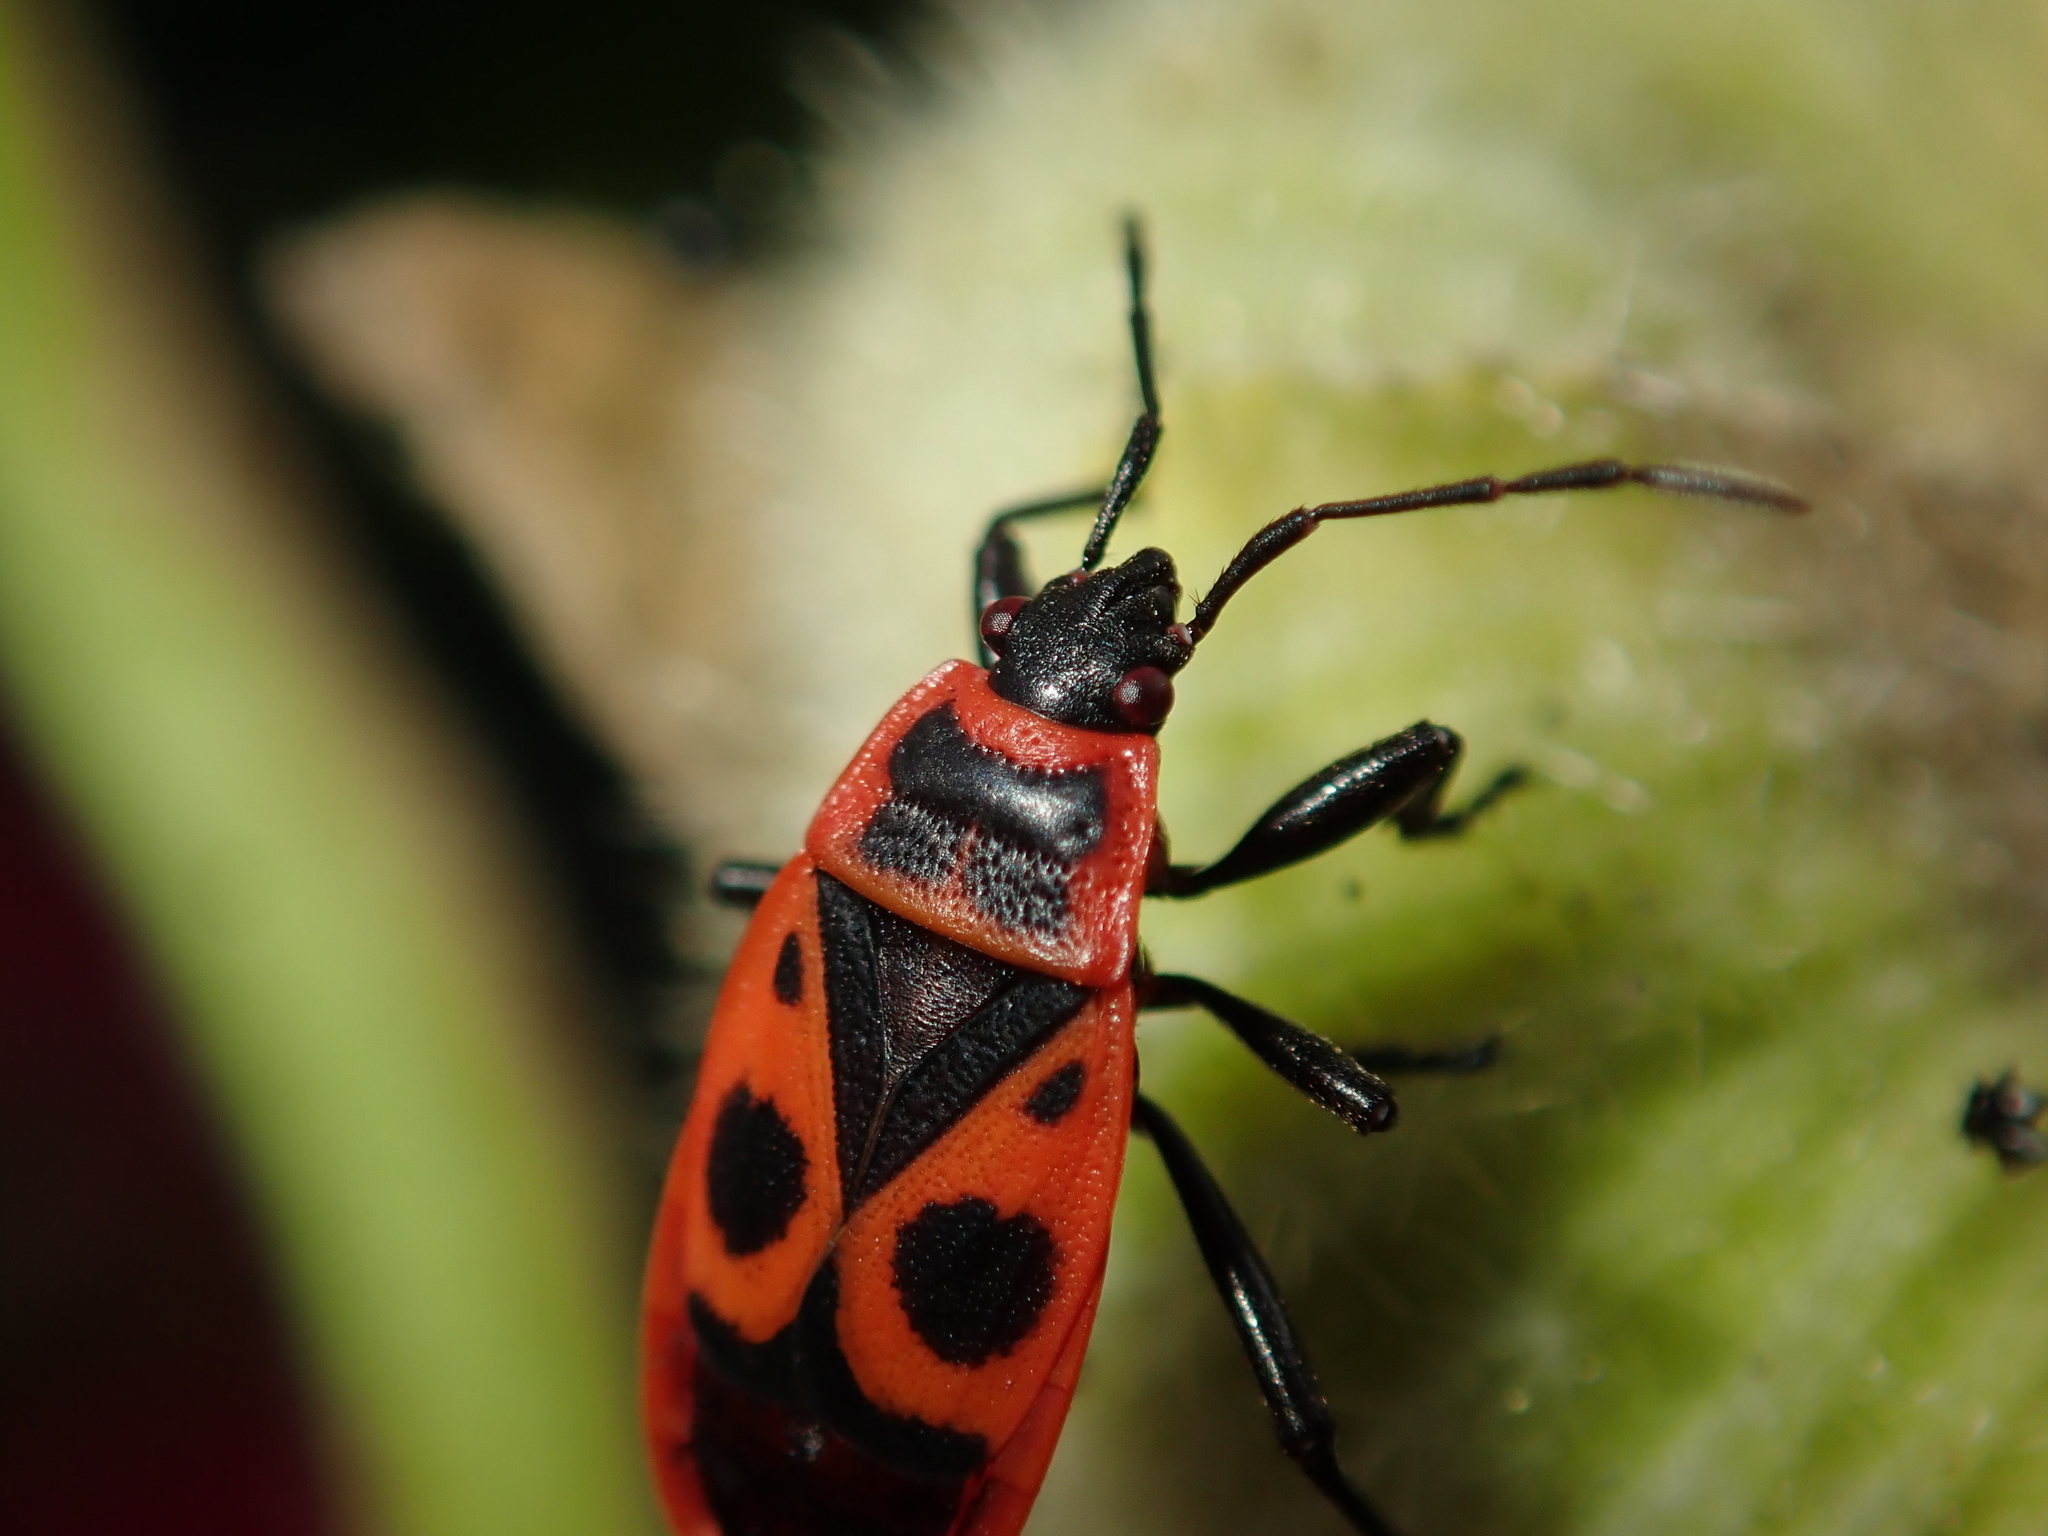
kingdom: Animalia
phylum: Arthropoda
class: Insecta
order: Hemiptera
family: Pyrrhocoridae
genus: Pyrrhocoris
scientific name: Pyrrhocoris apterus
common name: Firebug
